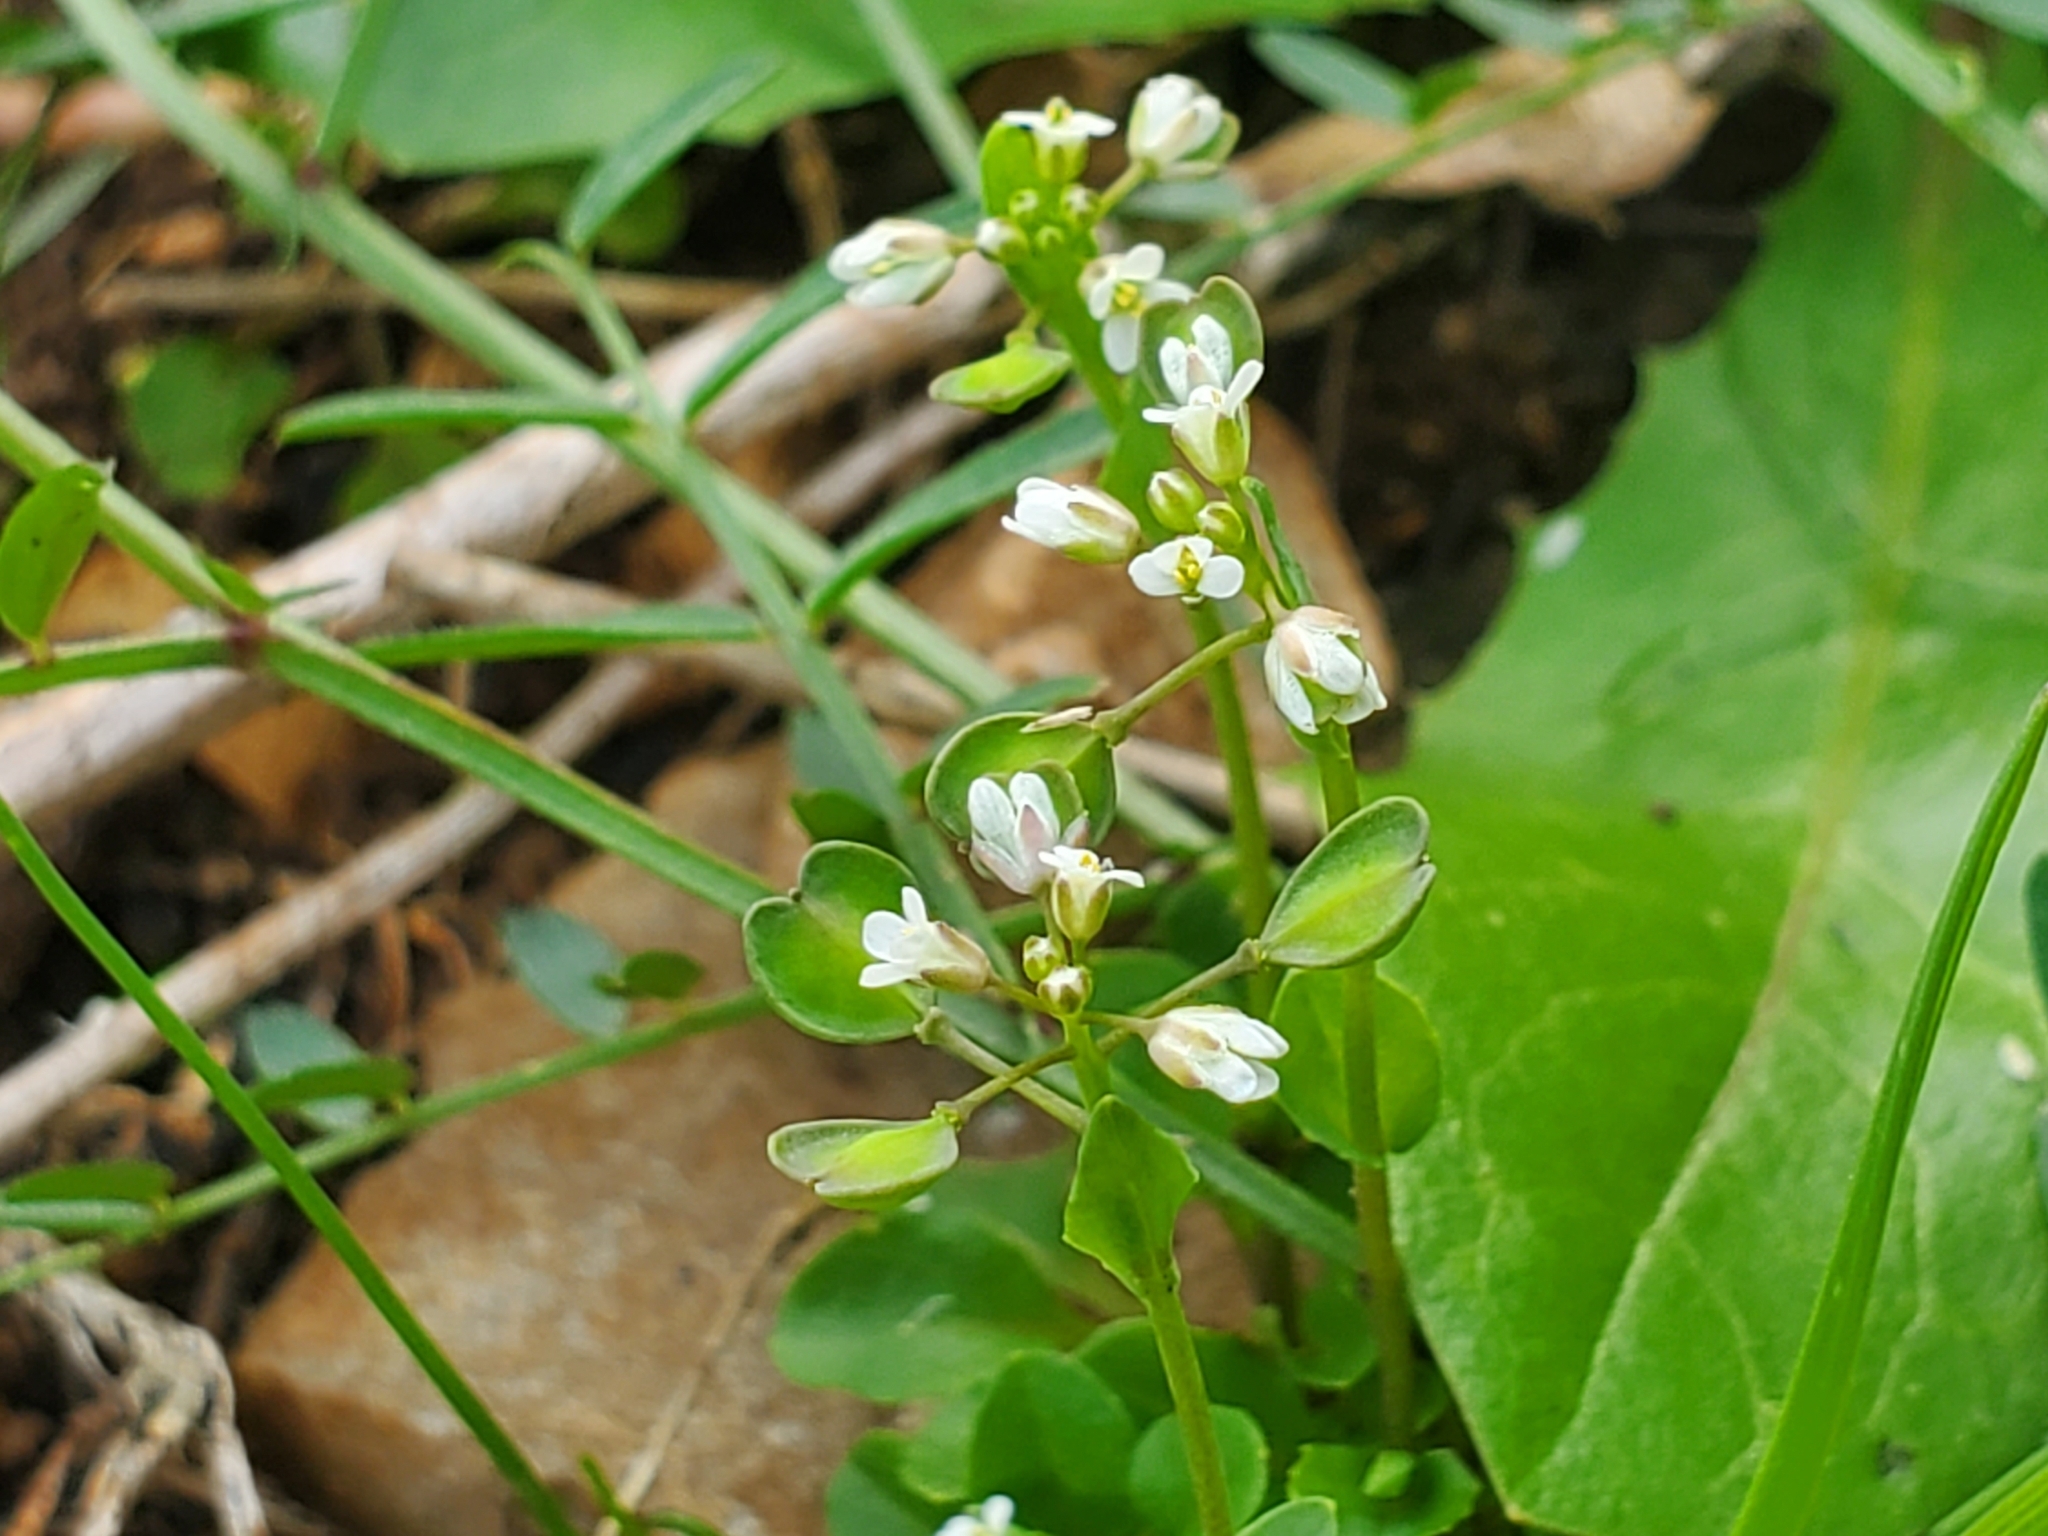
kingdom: Plantae
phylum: Tracheophyta
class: Magnoliopsida
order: Brassicales
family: Brassicaceae
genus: Noccaea
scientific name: Noccaea perfoliata
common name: Perfoliate pennycress
